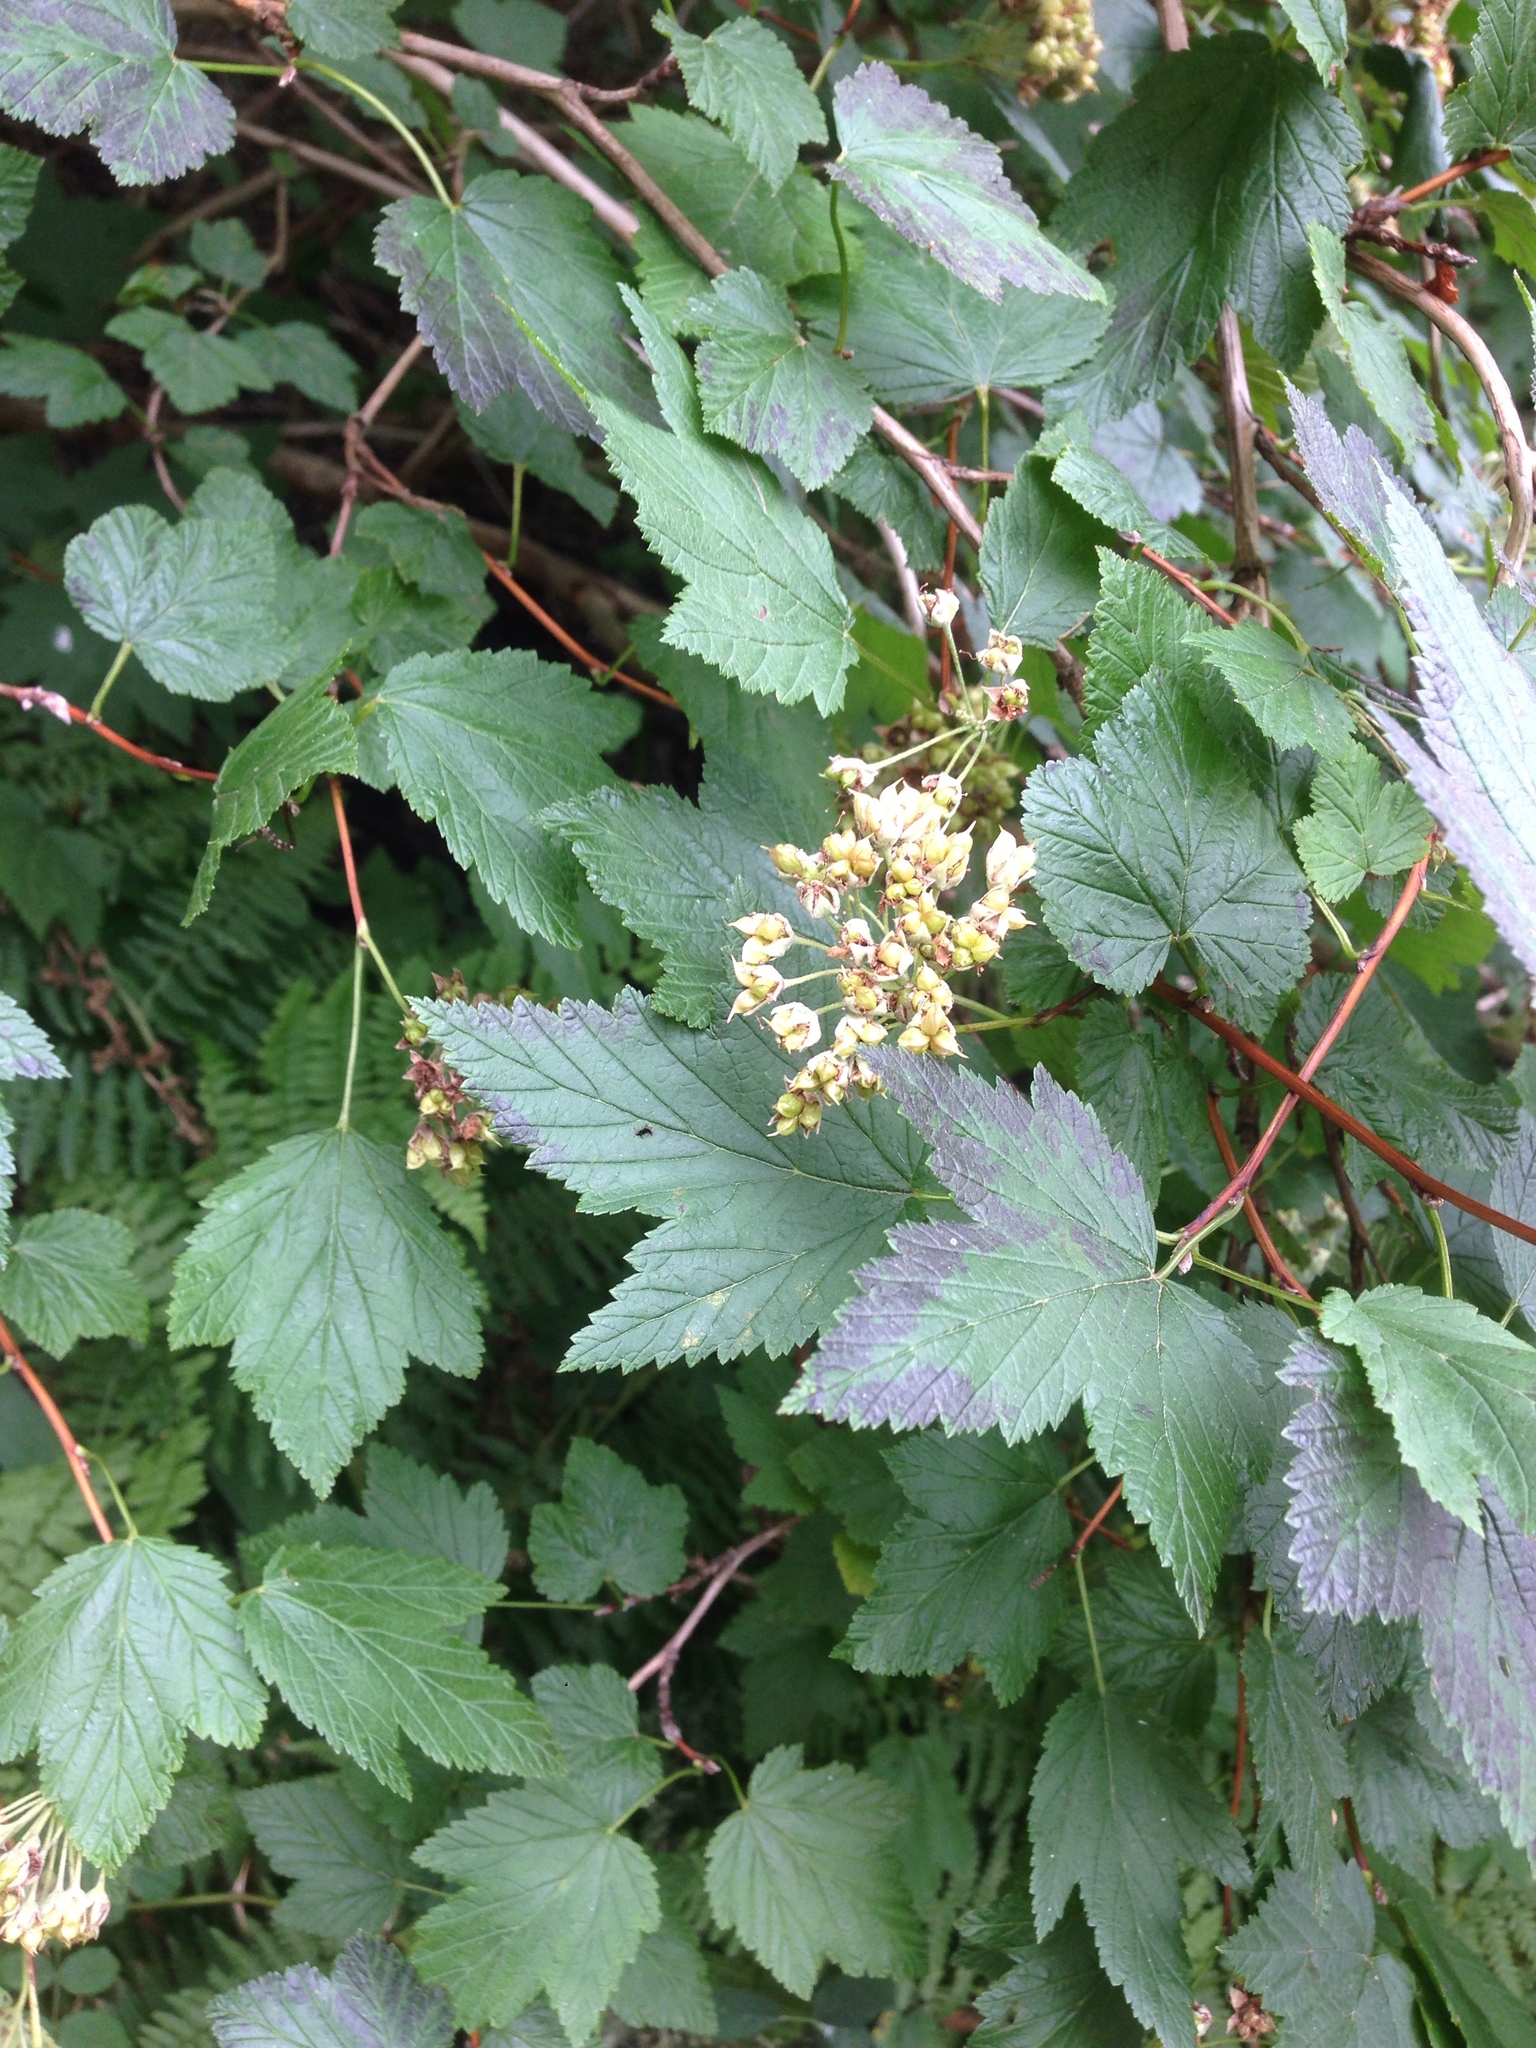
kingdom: Plantae
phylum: Tracheophyta
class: Magnoliopsida
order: Rosales
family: Rosaceae
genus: Physocarpus
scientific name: Physocarpus capitatus
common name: Pacific ninebark
